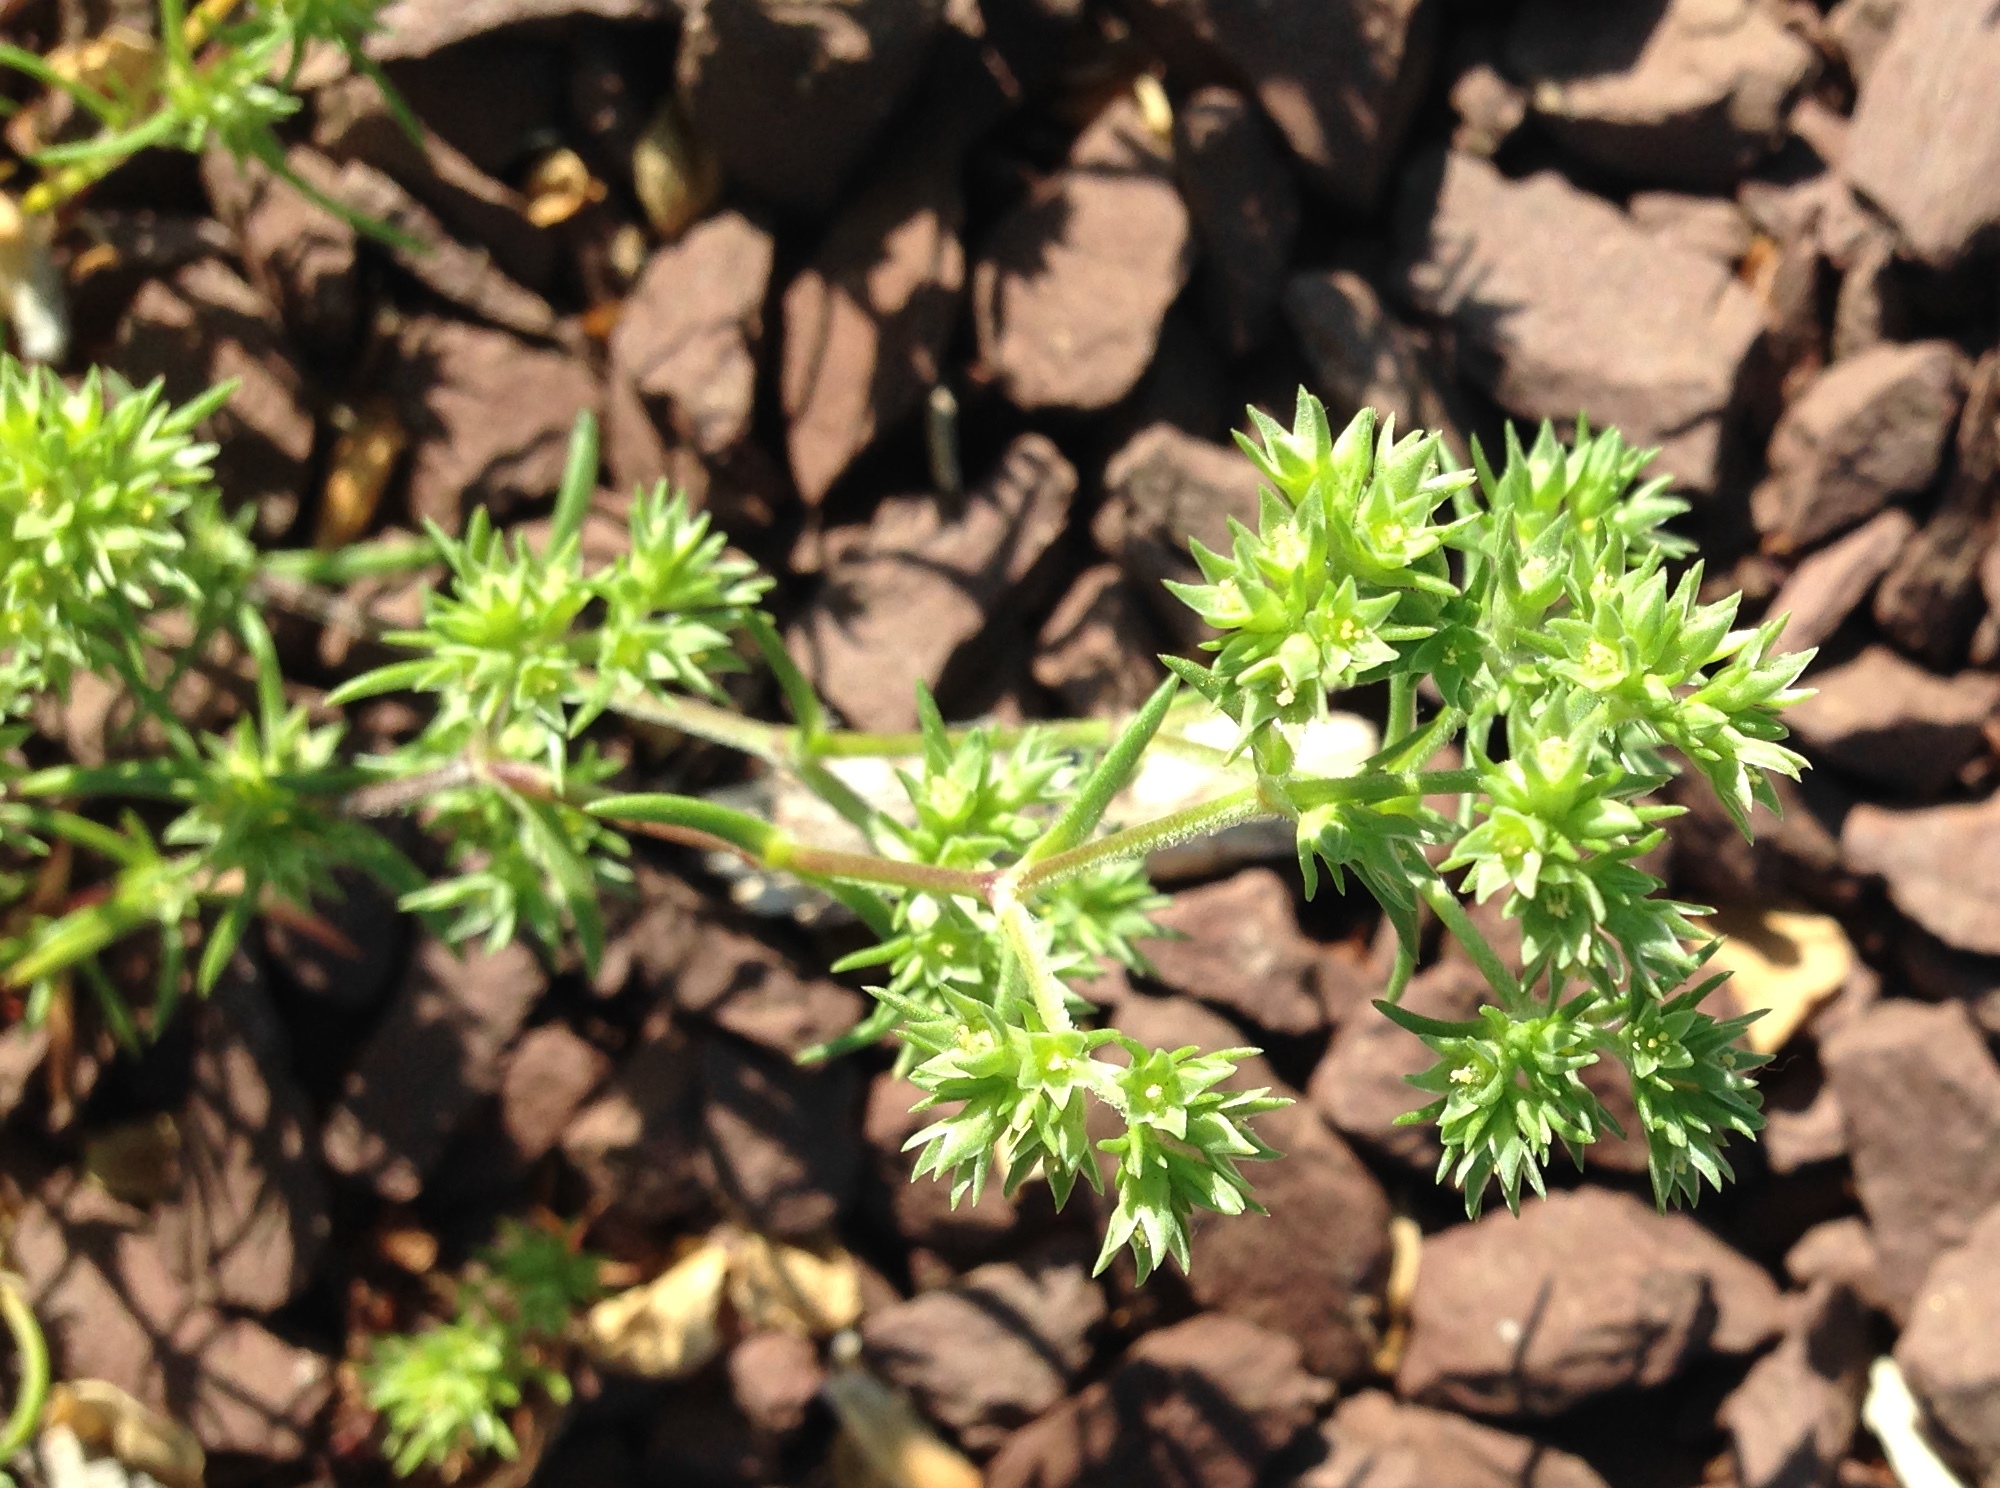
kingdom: Plantae
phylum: Tracheophyta
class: Magnoliopsida
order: Caryophyllales
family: Caryophyllaceae
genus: Scleranthus
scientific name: Scleranthus annuus
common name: Annual knawel
